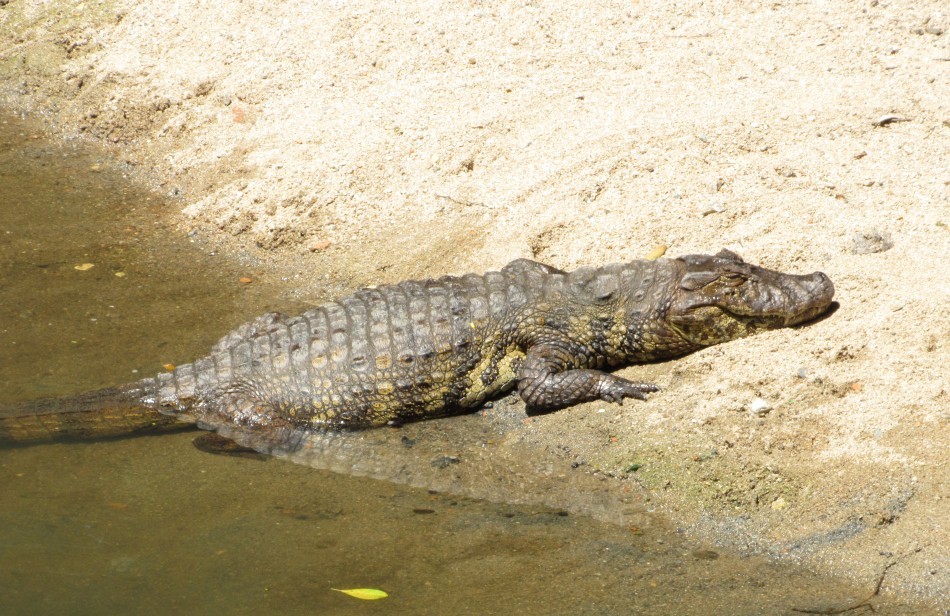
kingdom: Animalia
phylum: Chordata
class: Crocodylia
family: Alligatoridae
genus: Caiman
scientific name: Caiman latirostris
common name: Broad-snouted caiman
